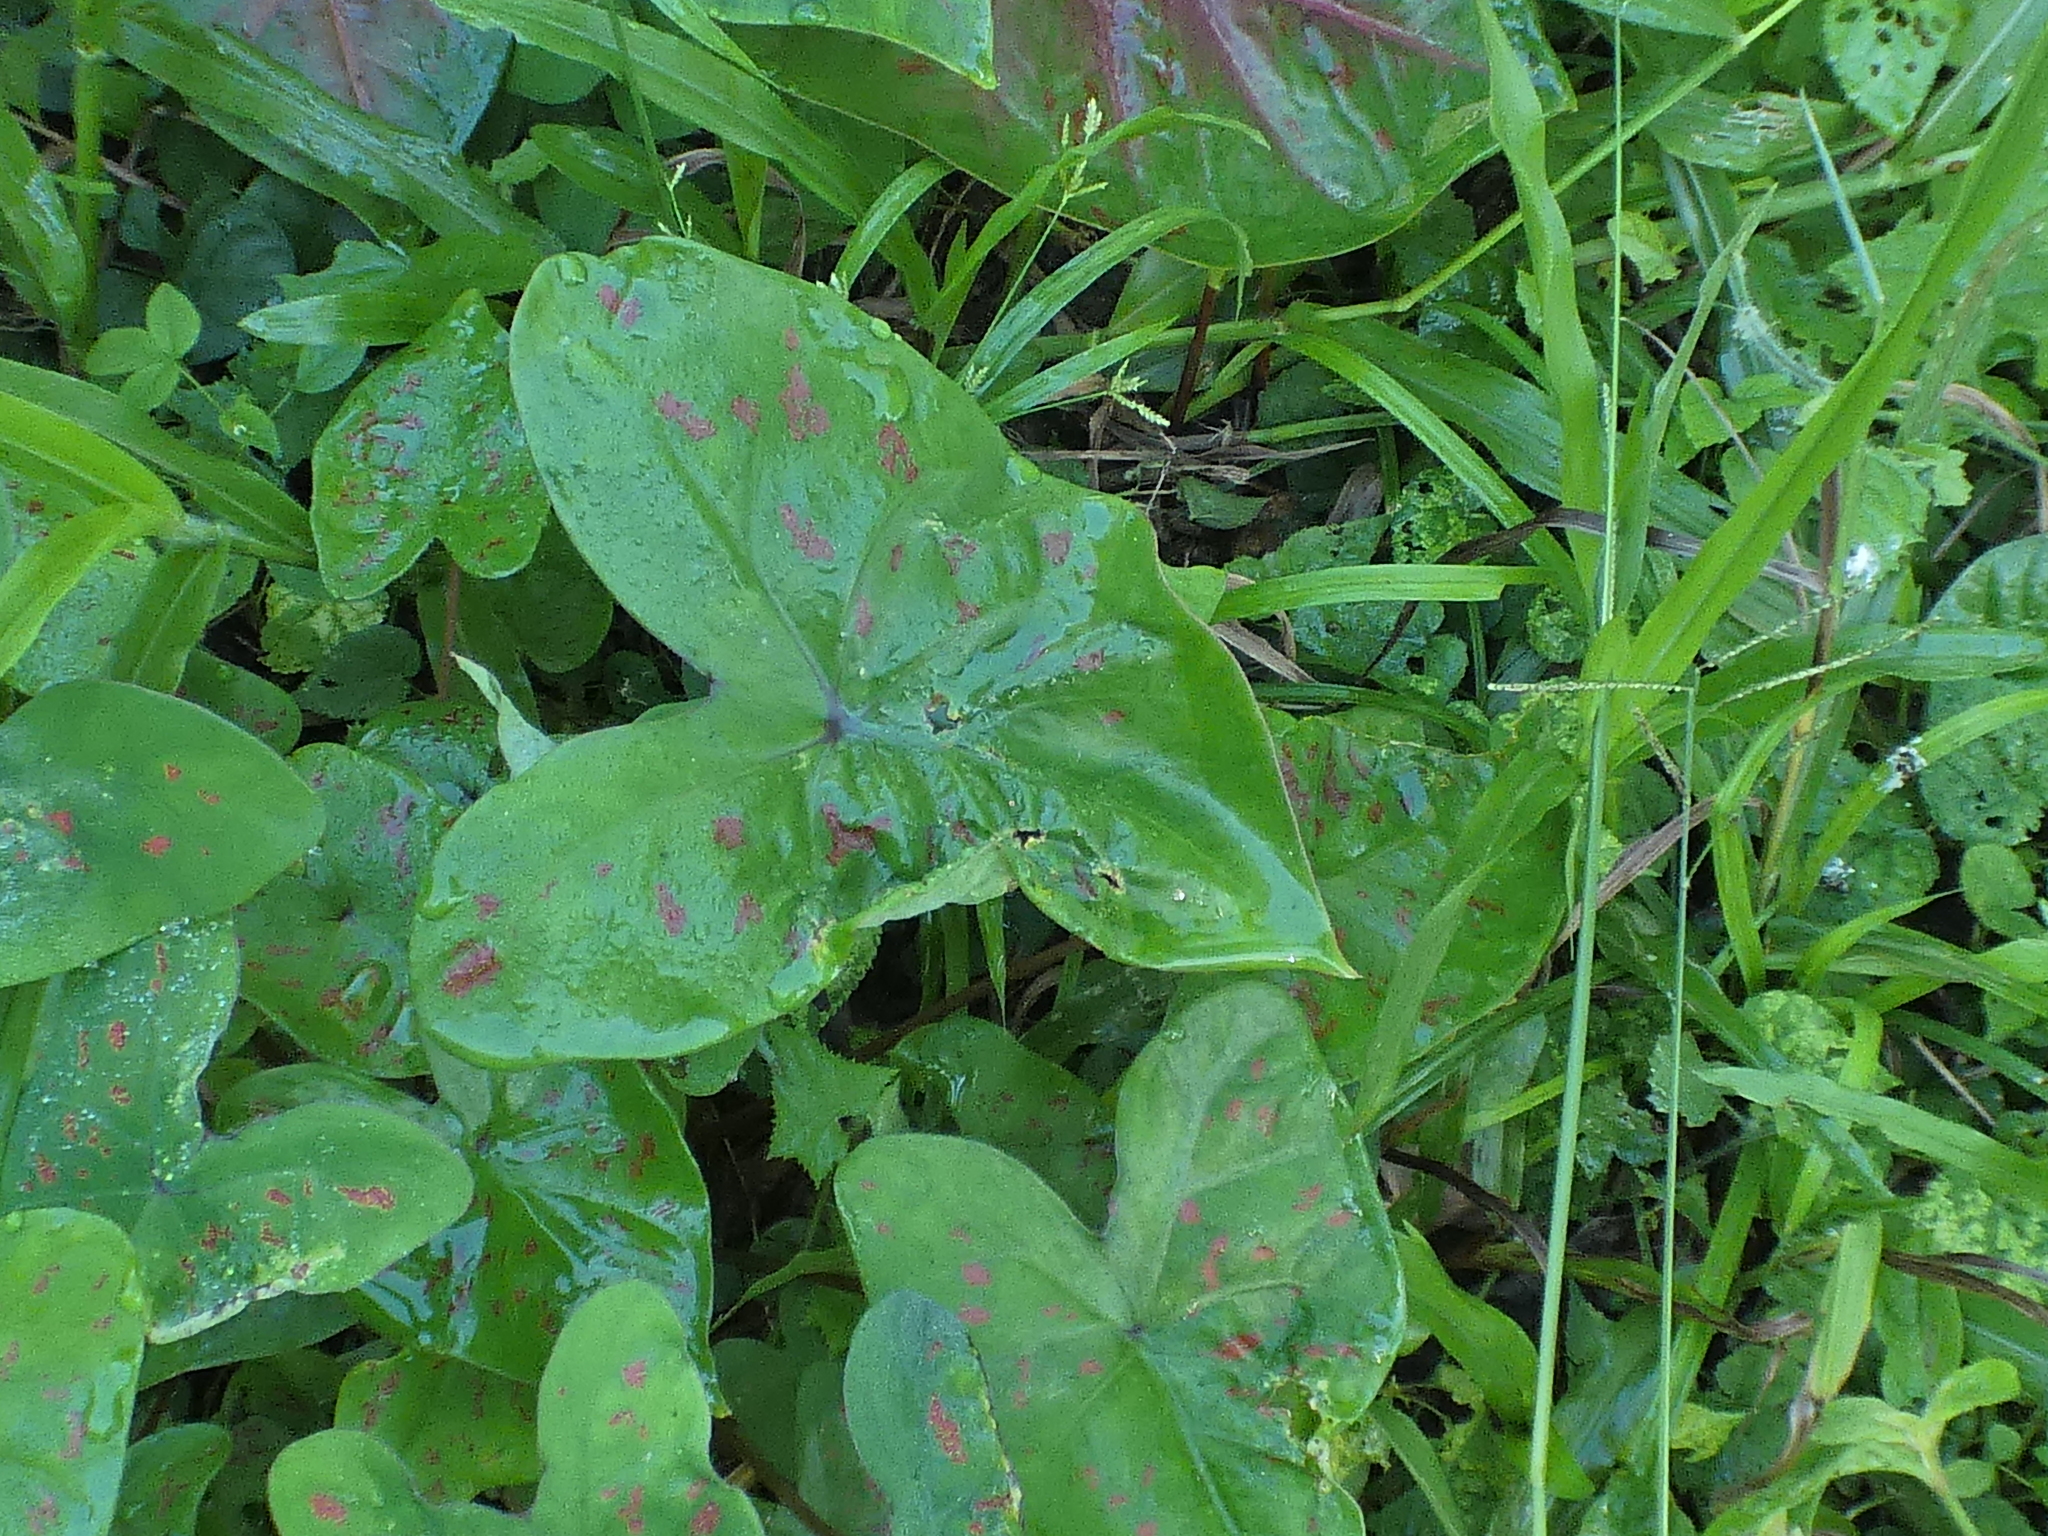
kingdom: Plantae
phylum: Tracheophyta
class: Liliopsida
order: Alismatales
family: Araceae
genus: Caladium
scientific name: Caladium bicolor
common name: Artist's pallet
